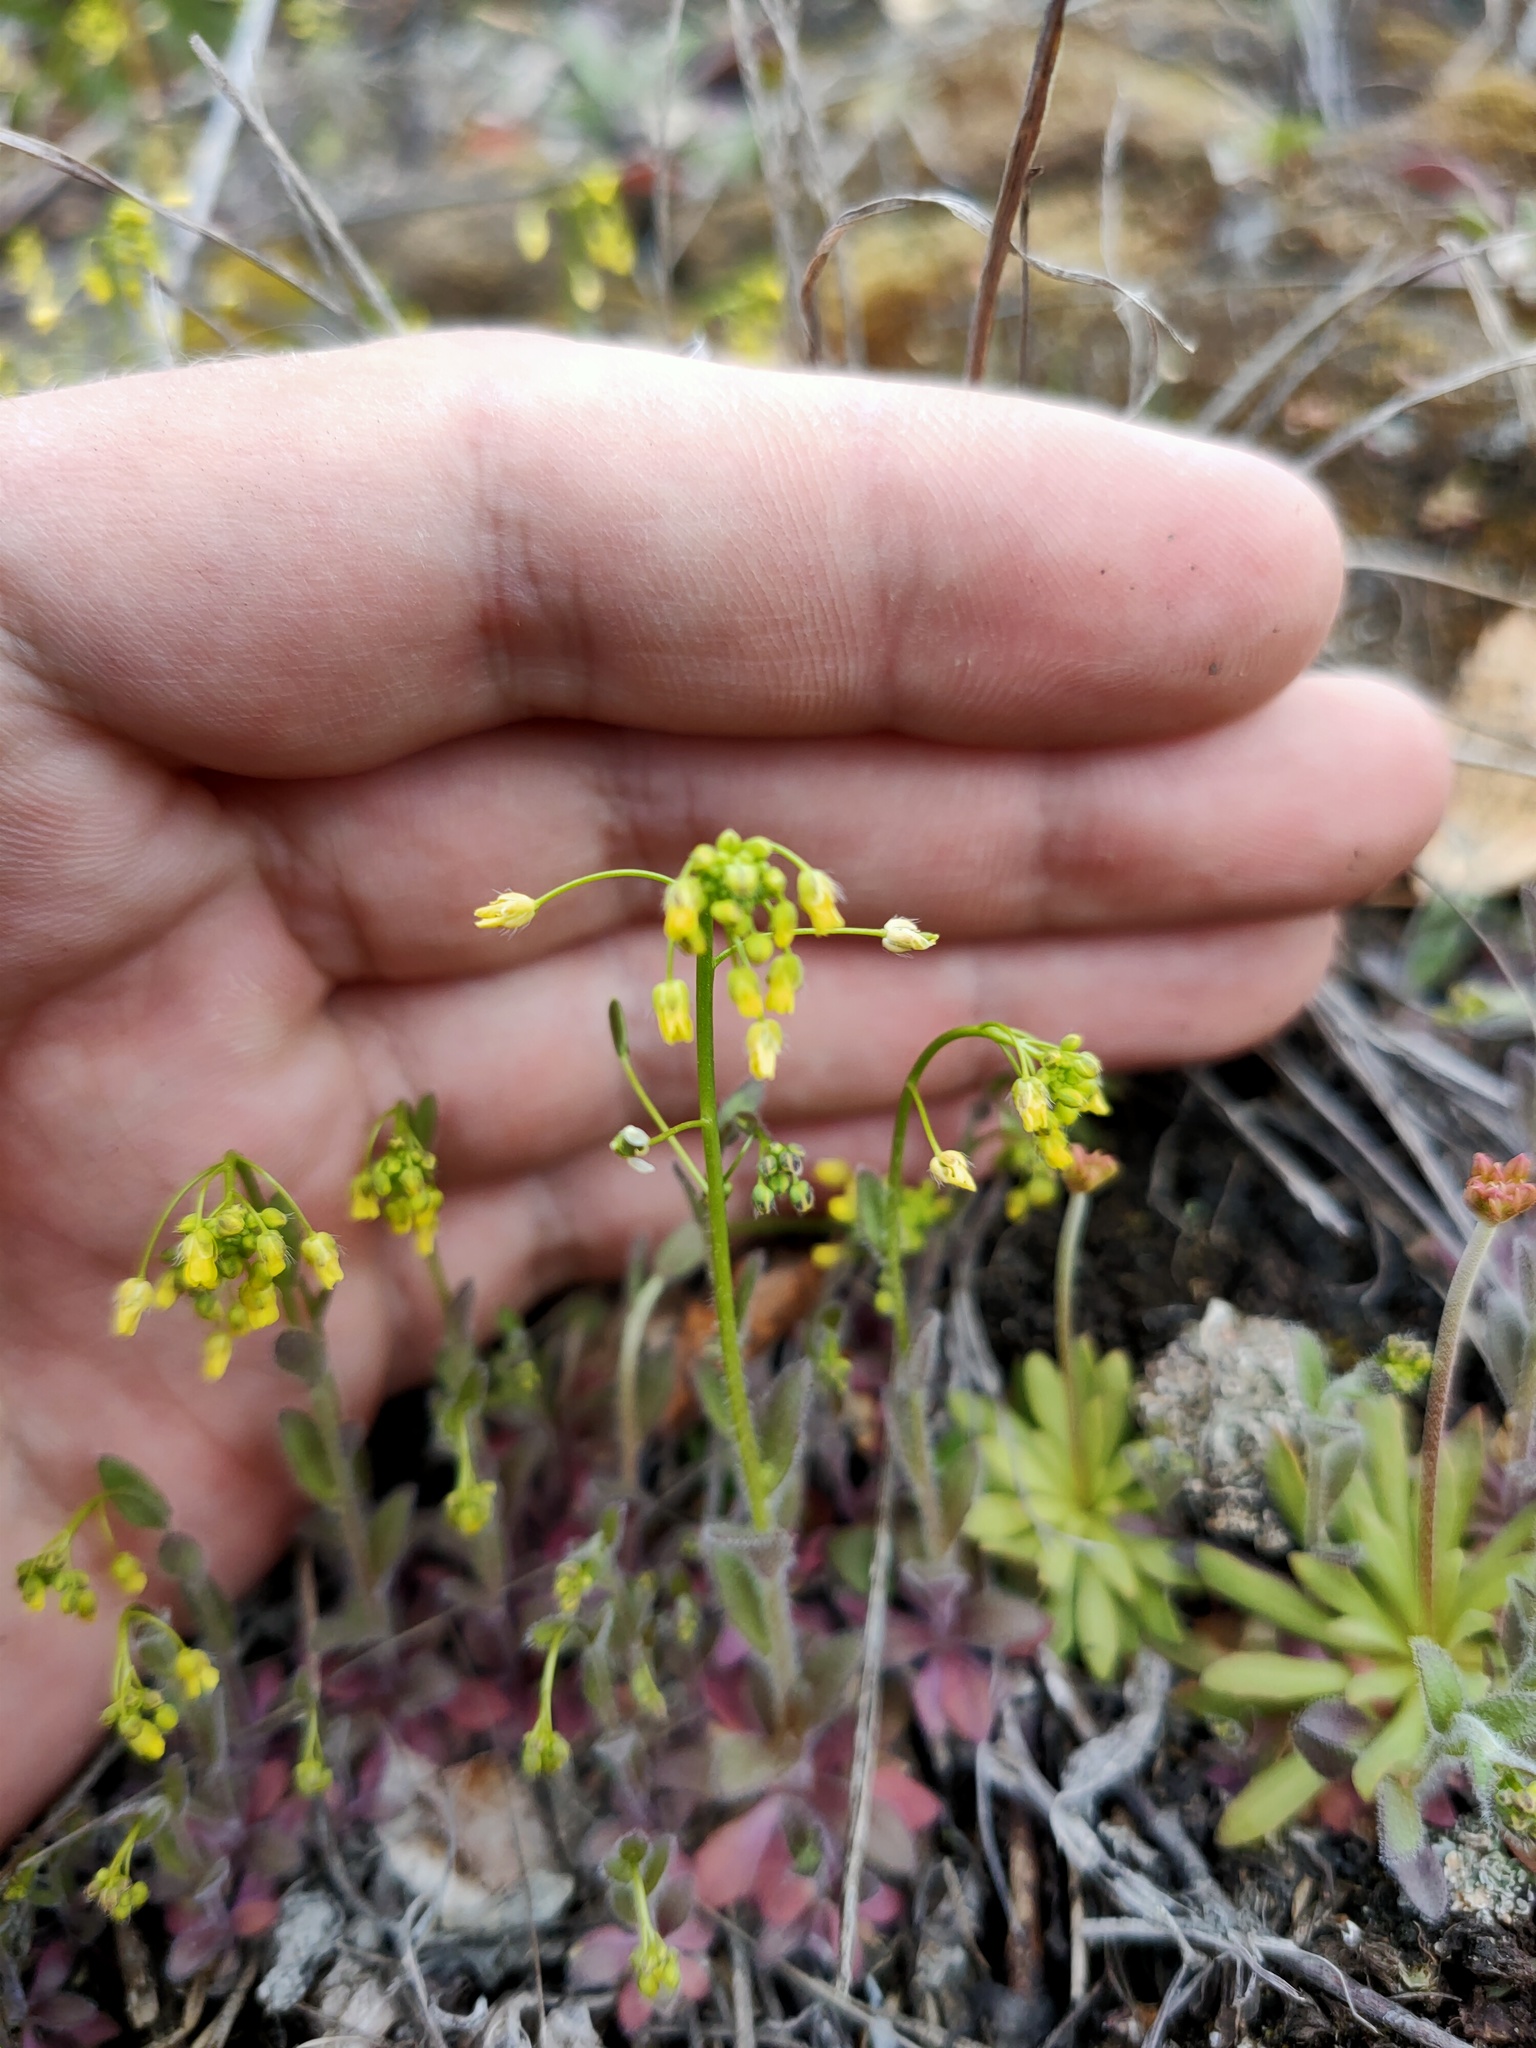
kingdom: Plantae
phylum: Tracheophyta
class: Magnoliopsida
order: Brassicales
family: Brassicaceae
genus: Draba
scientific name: Draba nemorosa
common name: Wood whitlow-grass
